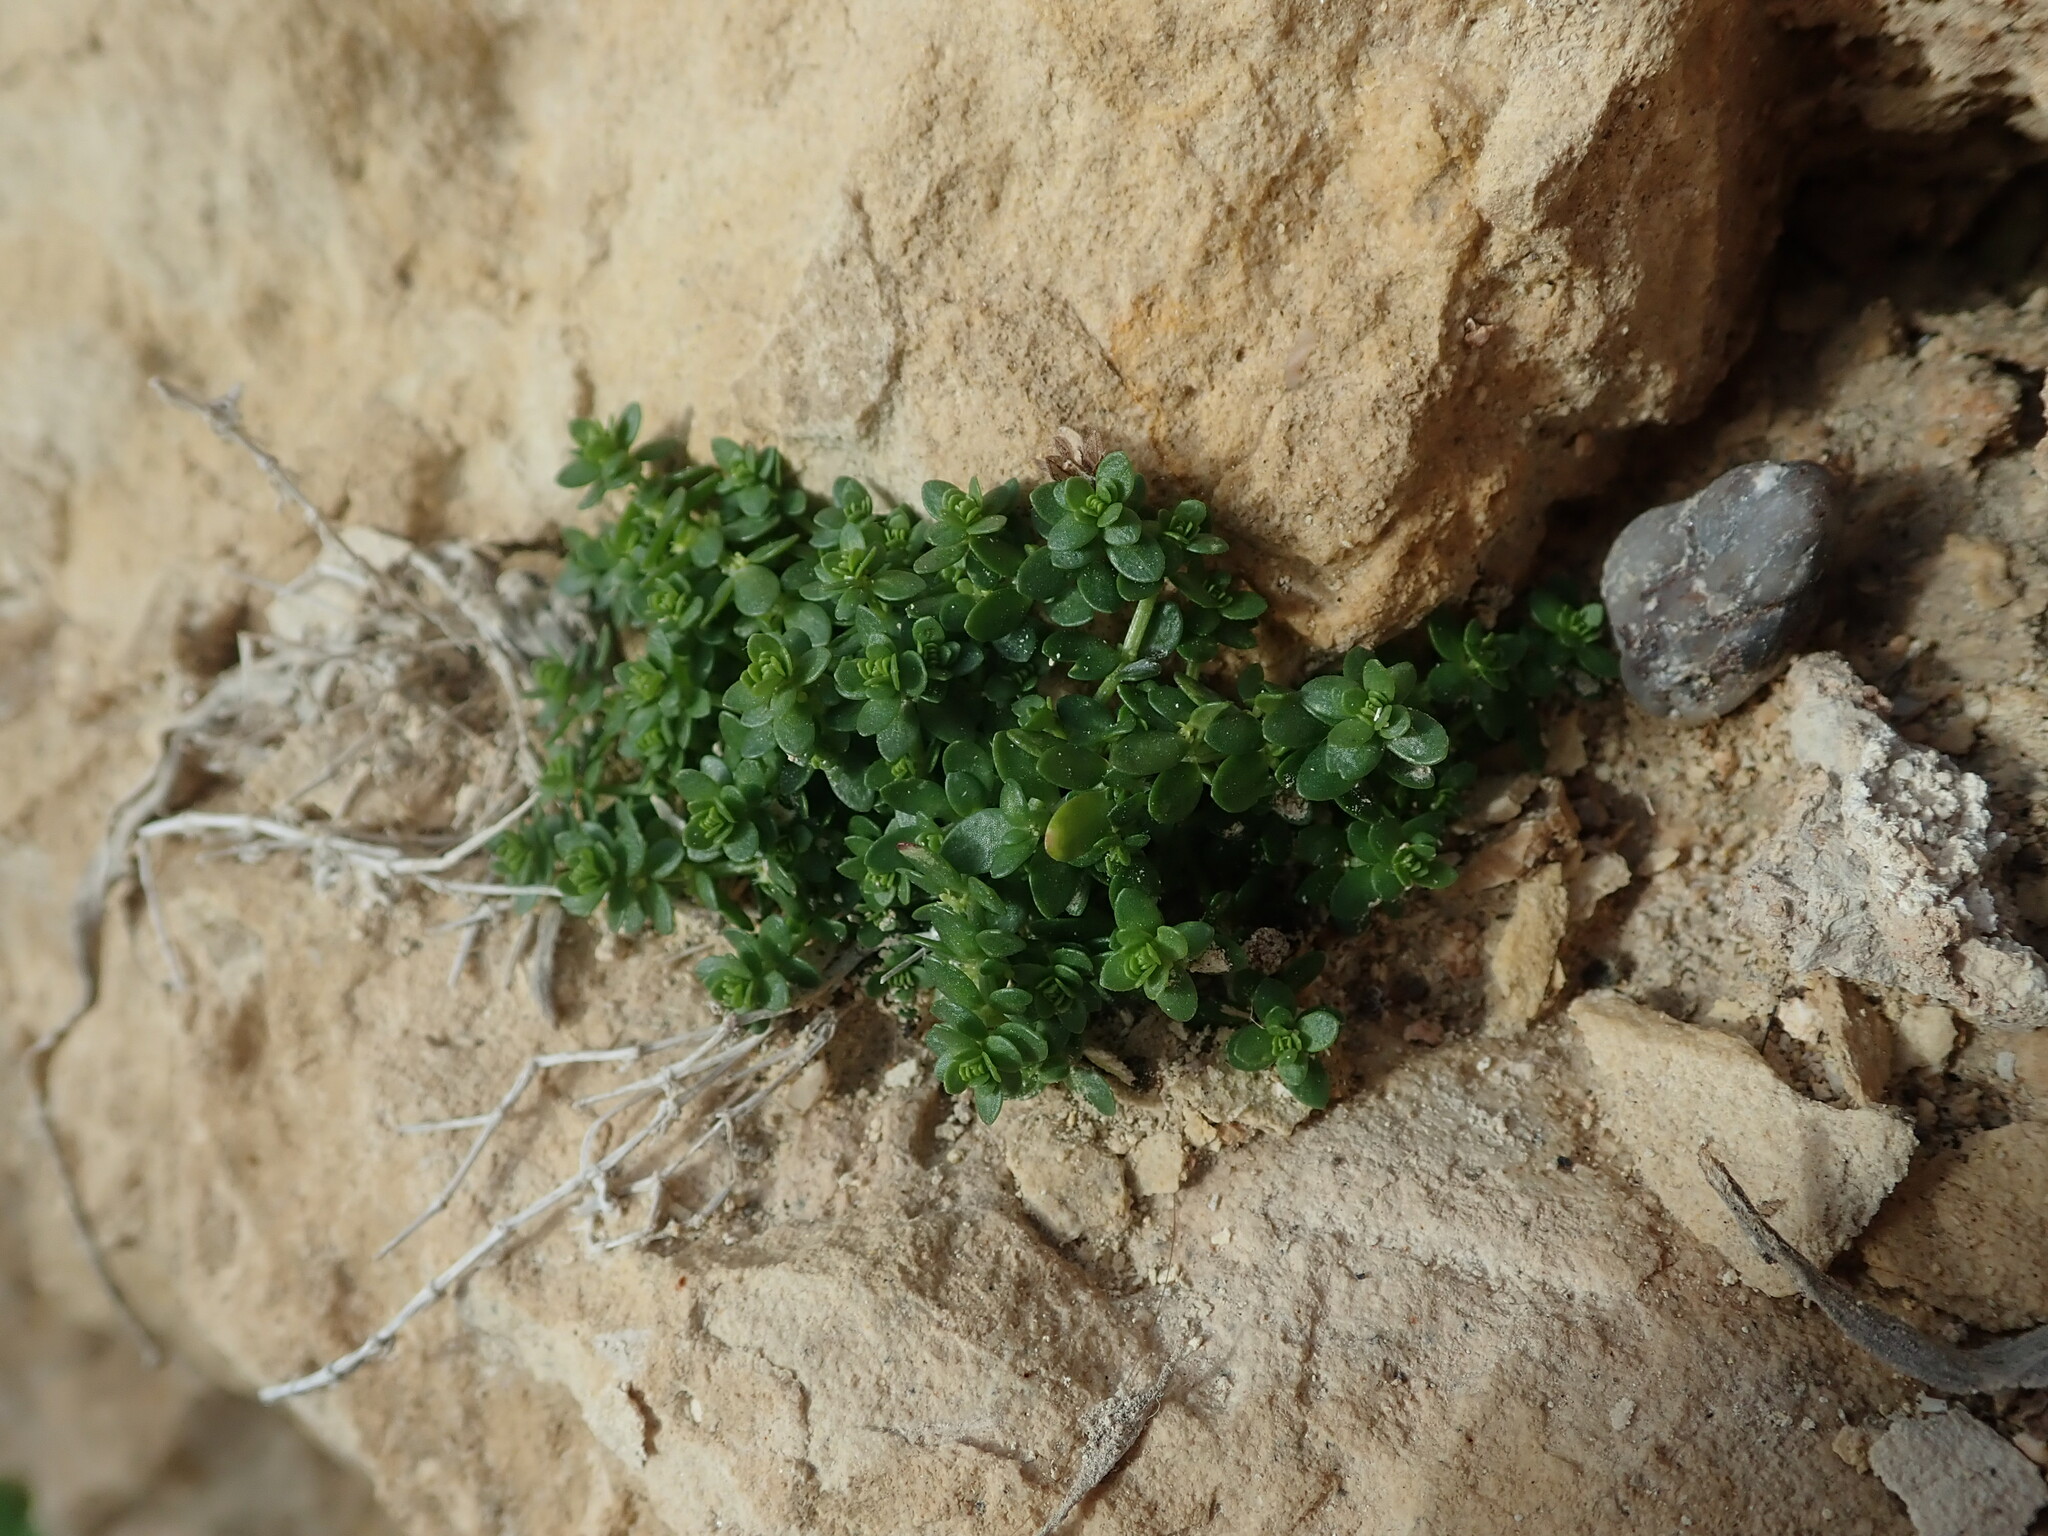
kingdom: Plantae
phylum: Tracheophyta
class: Magnoliopsida
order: Gentianales
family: Rubiaceae
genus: Valantia
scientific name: Valantia muralis
